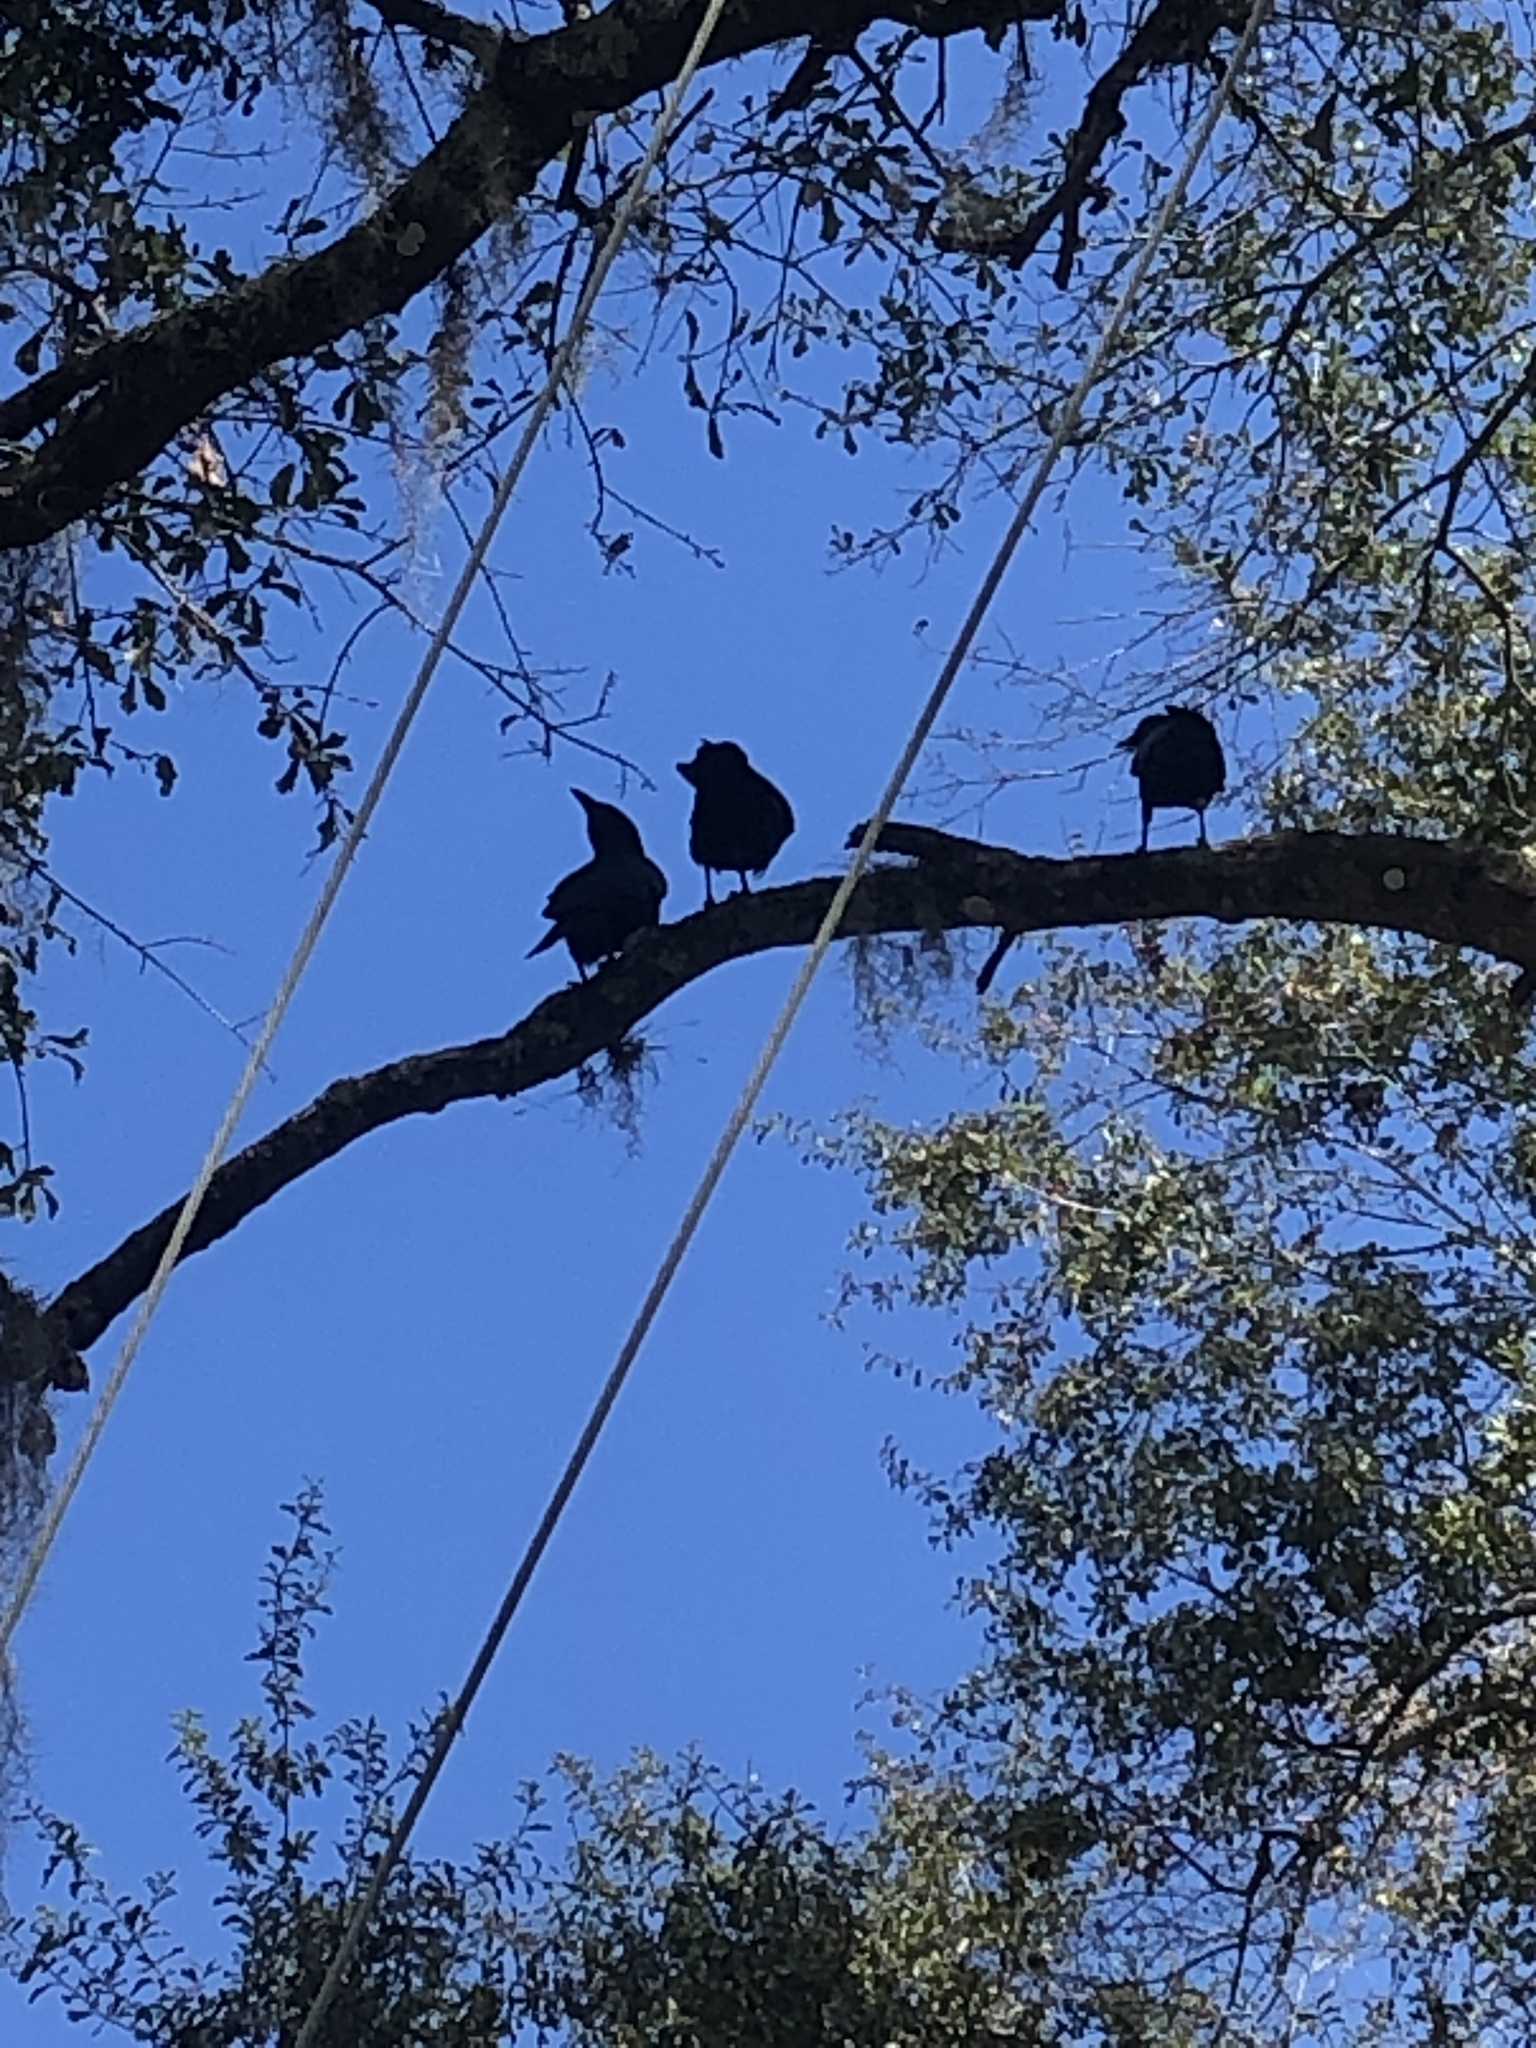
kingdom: Animalia
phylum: Chordata
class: Aves
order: Passeriformes
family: Corvidae
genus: Corvus
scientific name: Corvus
